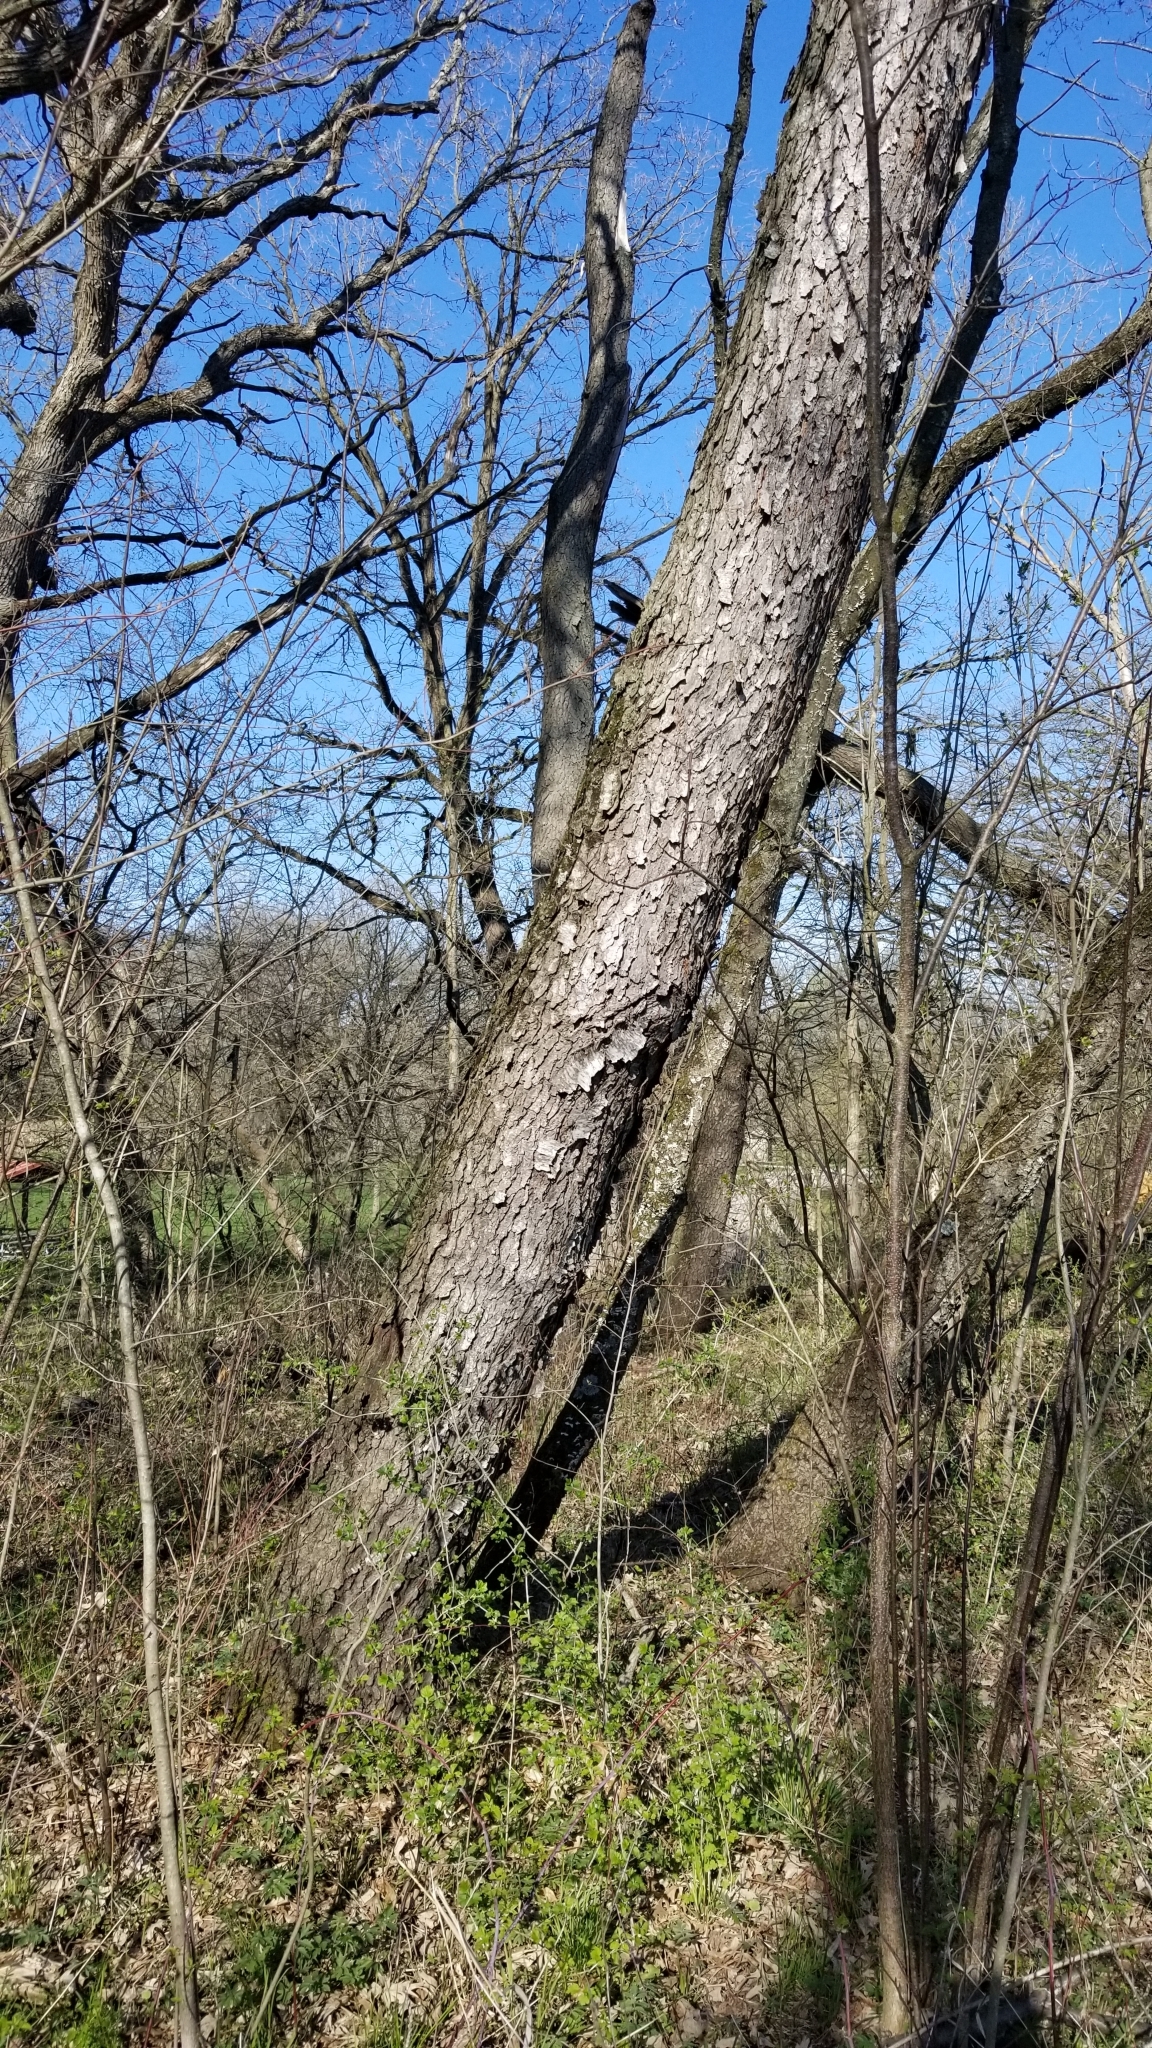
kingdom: Plantae
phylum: Tracheophyta
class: Magnoliopsida
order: Rosales
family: Rosaceae
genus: Prunus
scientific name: Prunus serotina
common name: Black cherry
